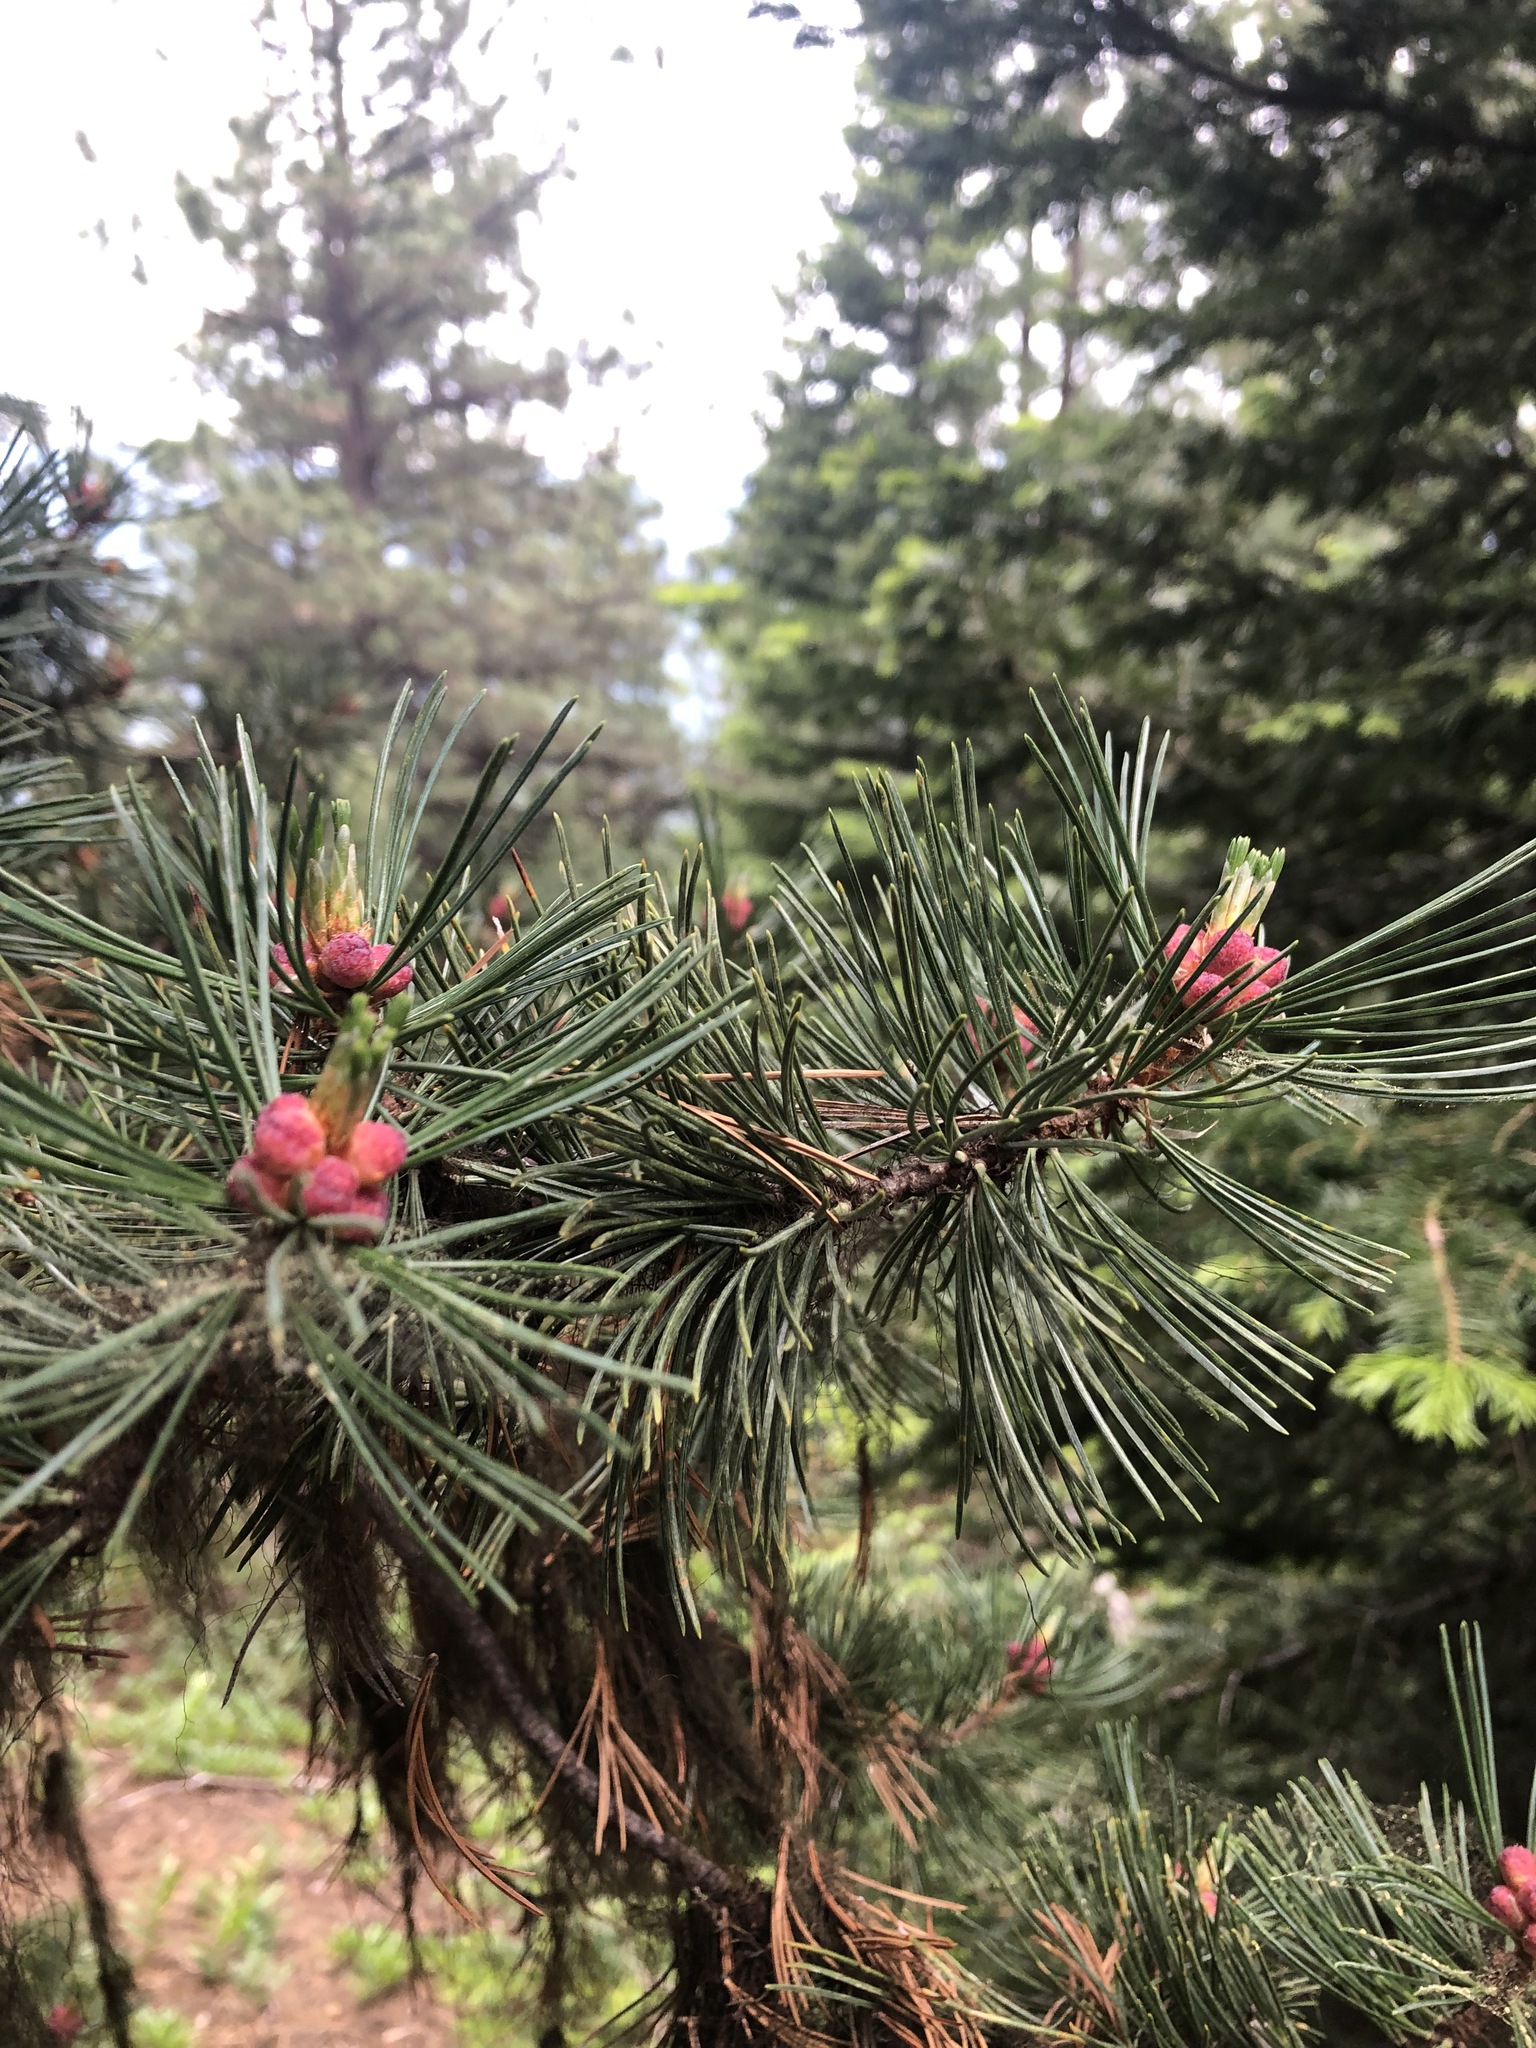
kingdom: Plantae
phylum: Tracheophyta
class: Pinopsida
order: Pinales
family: Pinaceae
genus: Pinus
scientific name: Pinus albicaulis
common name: Whitebark pine
